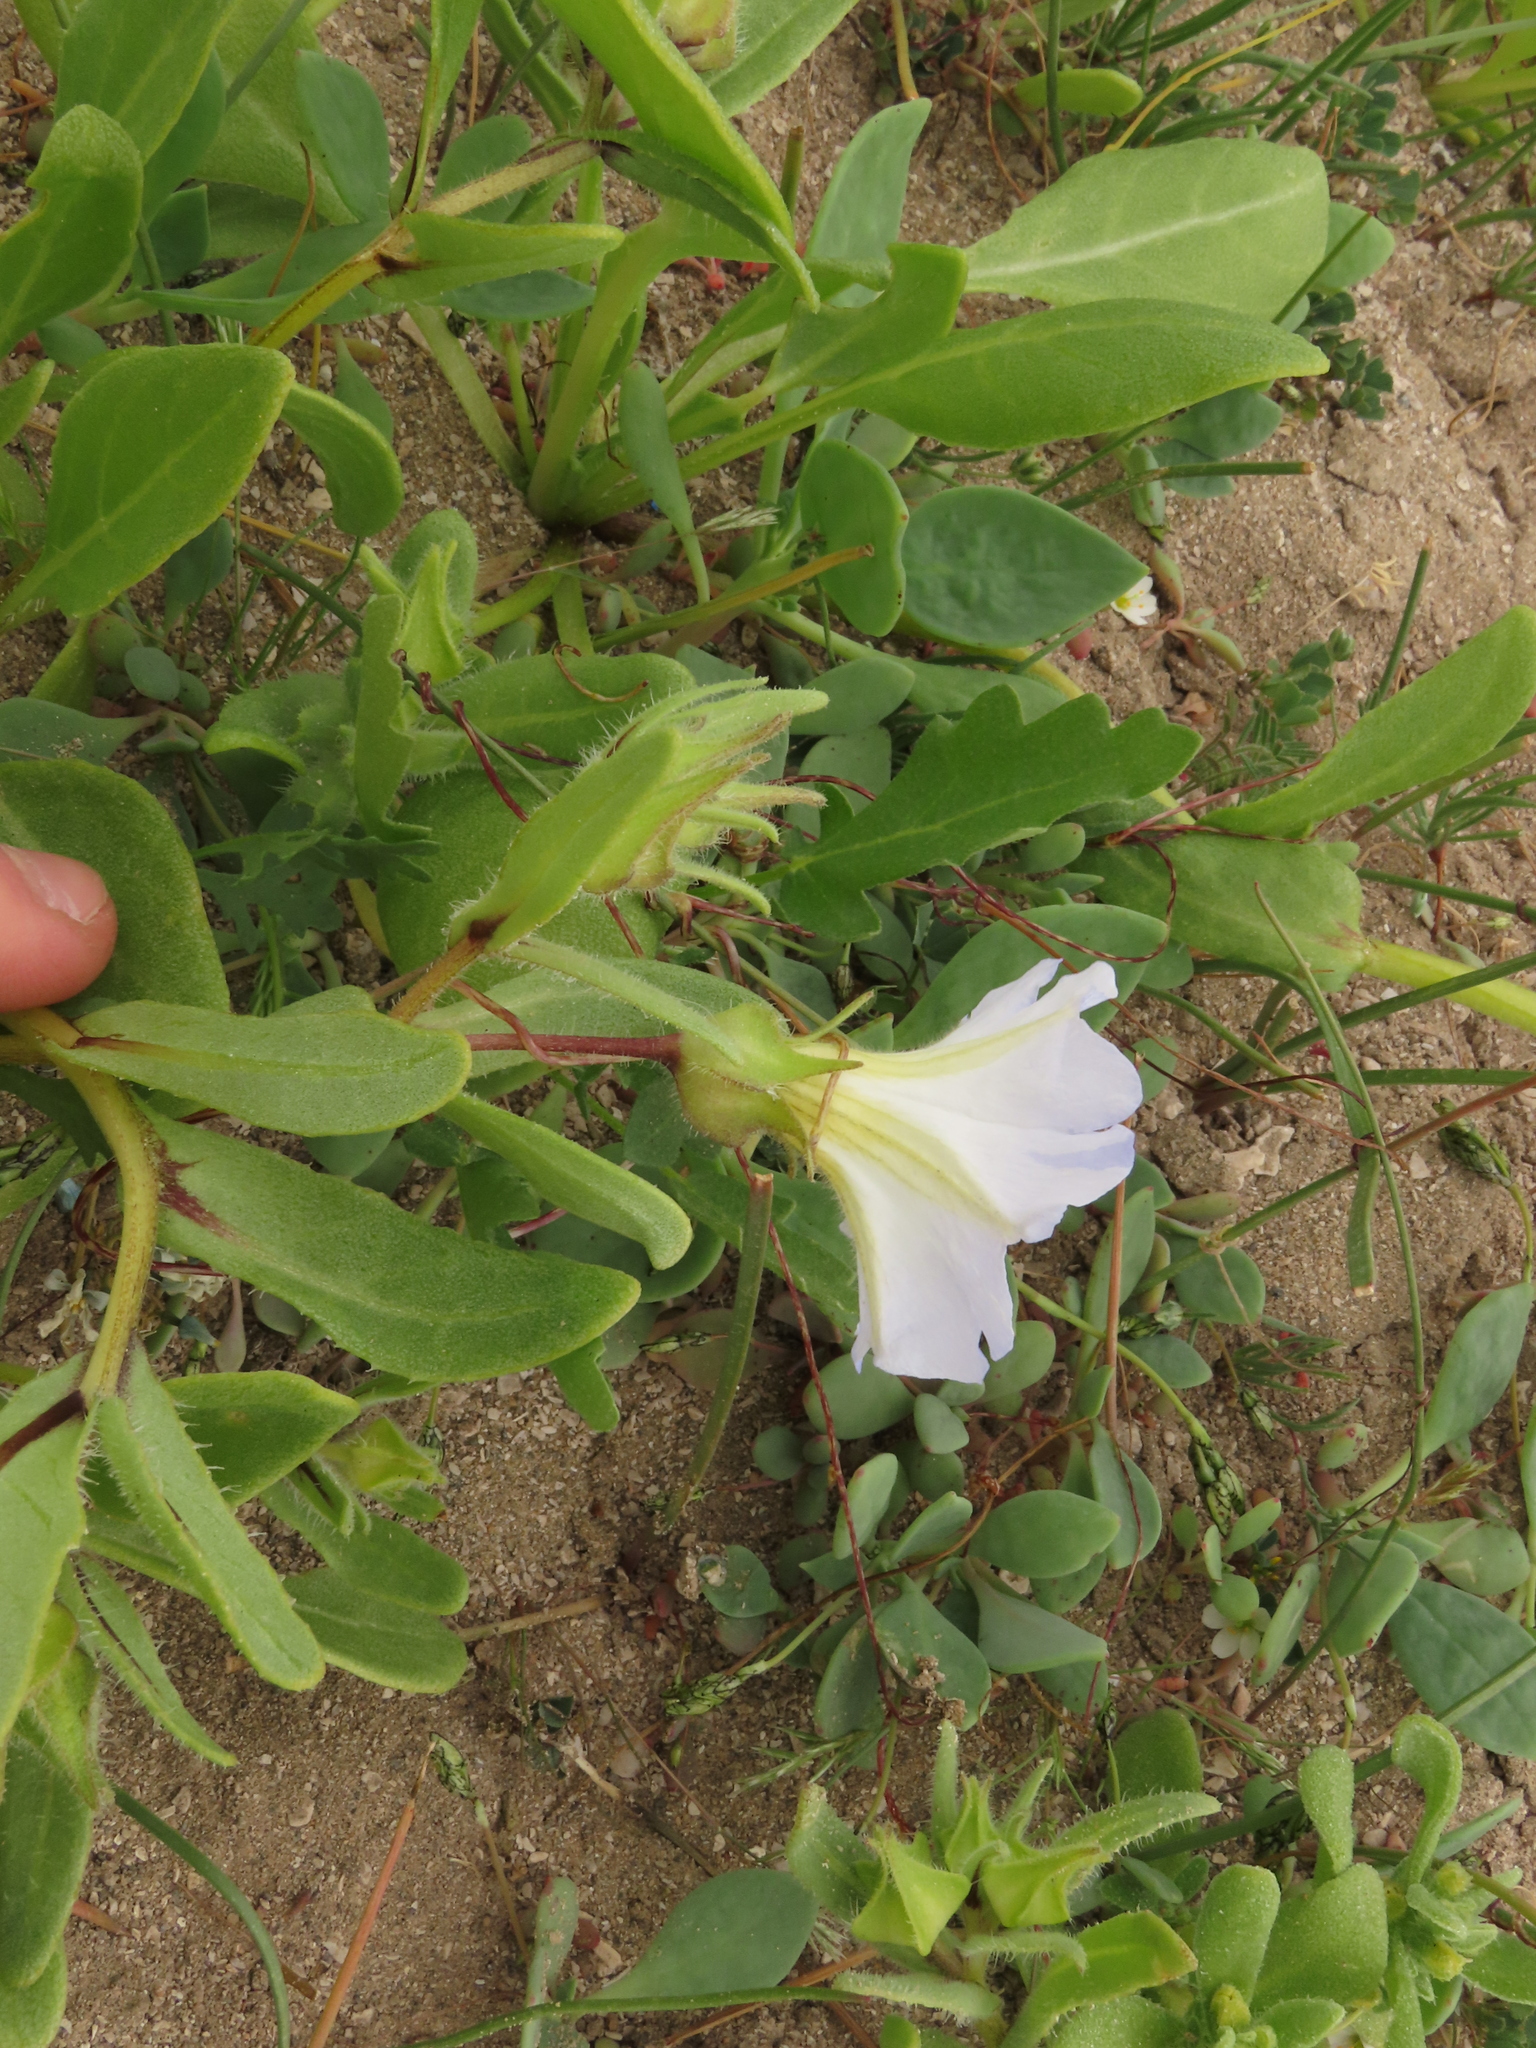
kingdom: Plantae
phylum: Tracheophyta
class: Magnoliopsida
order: Solanales
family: Solanaceae
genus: Nolana
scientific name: Nolana acuminata
